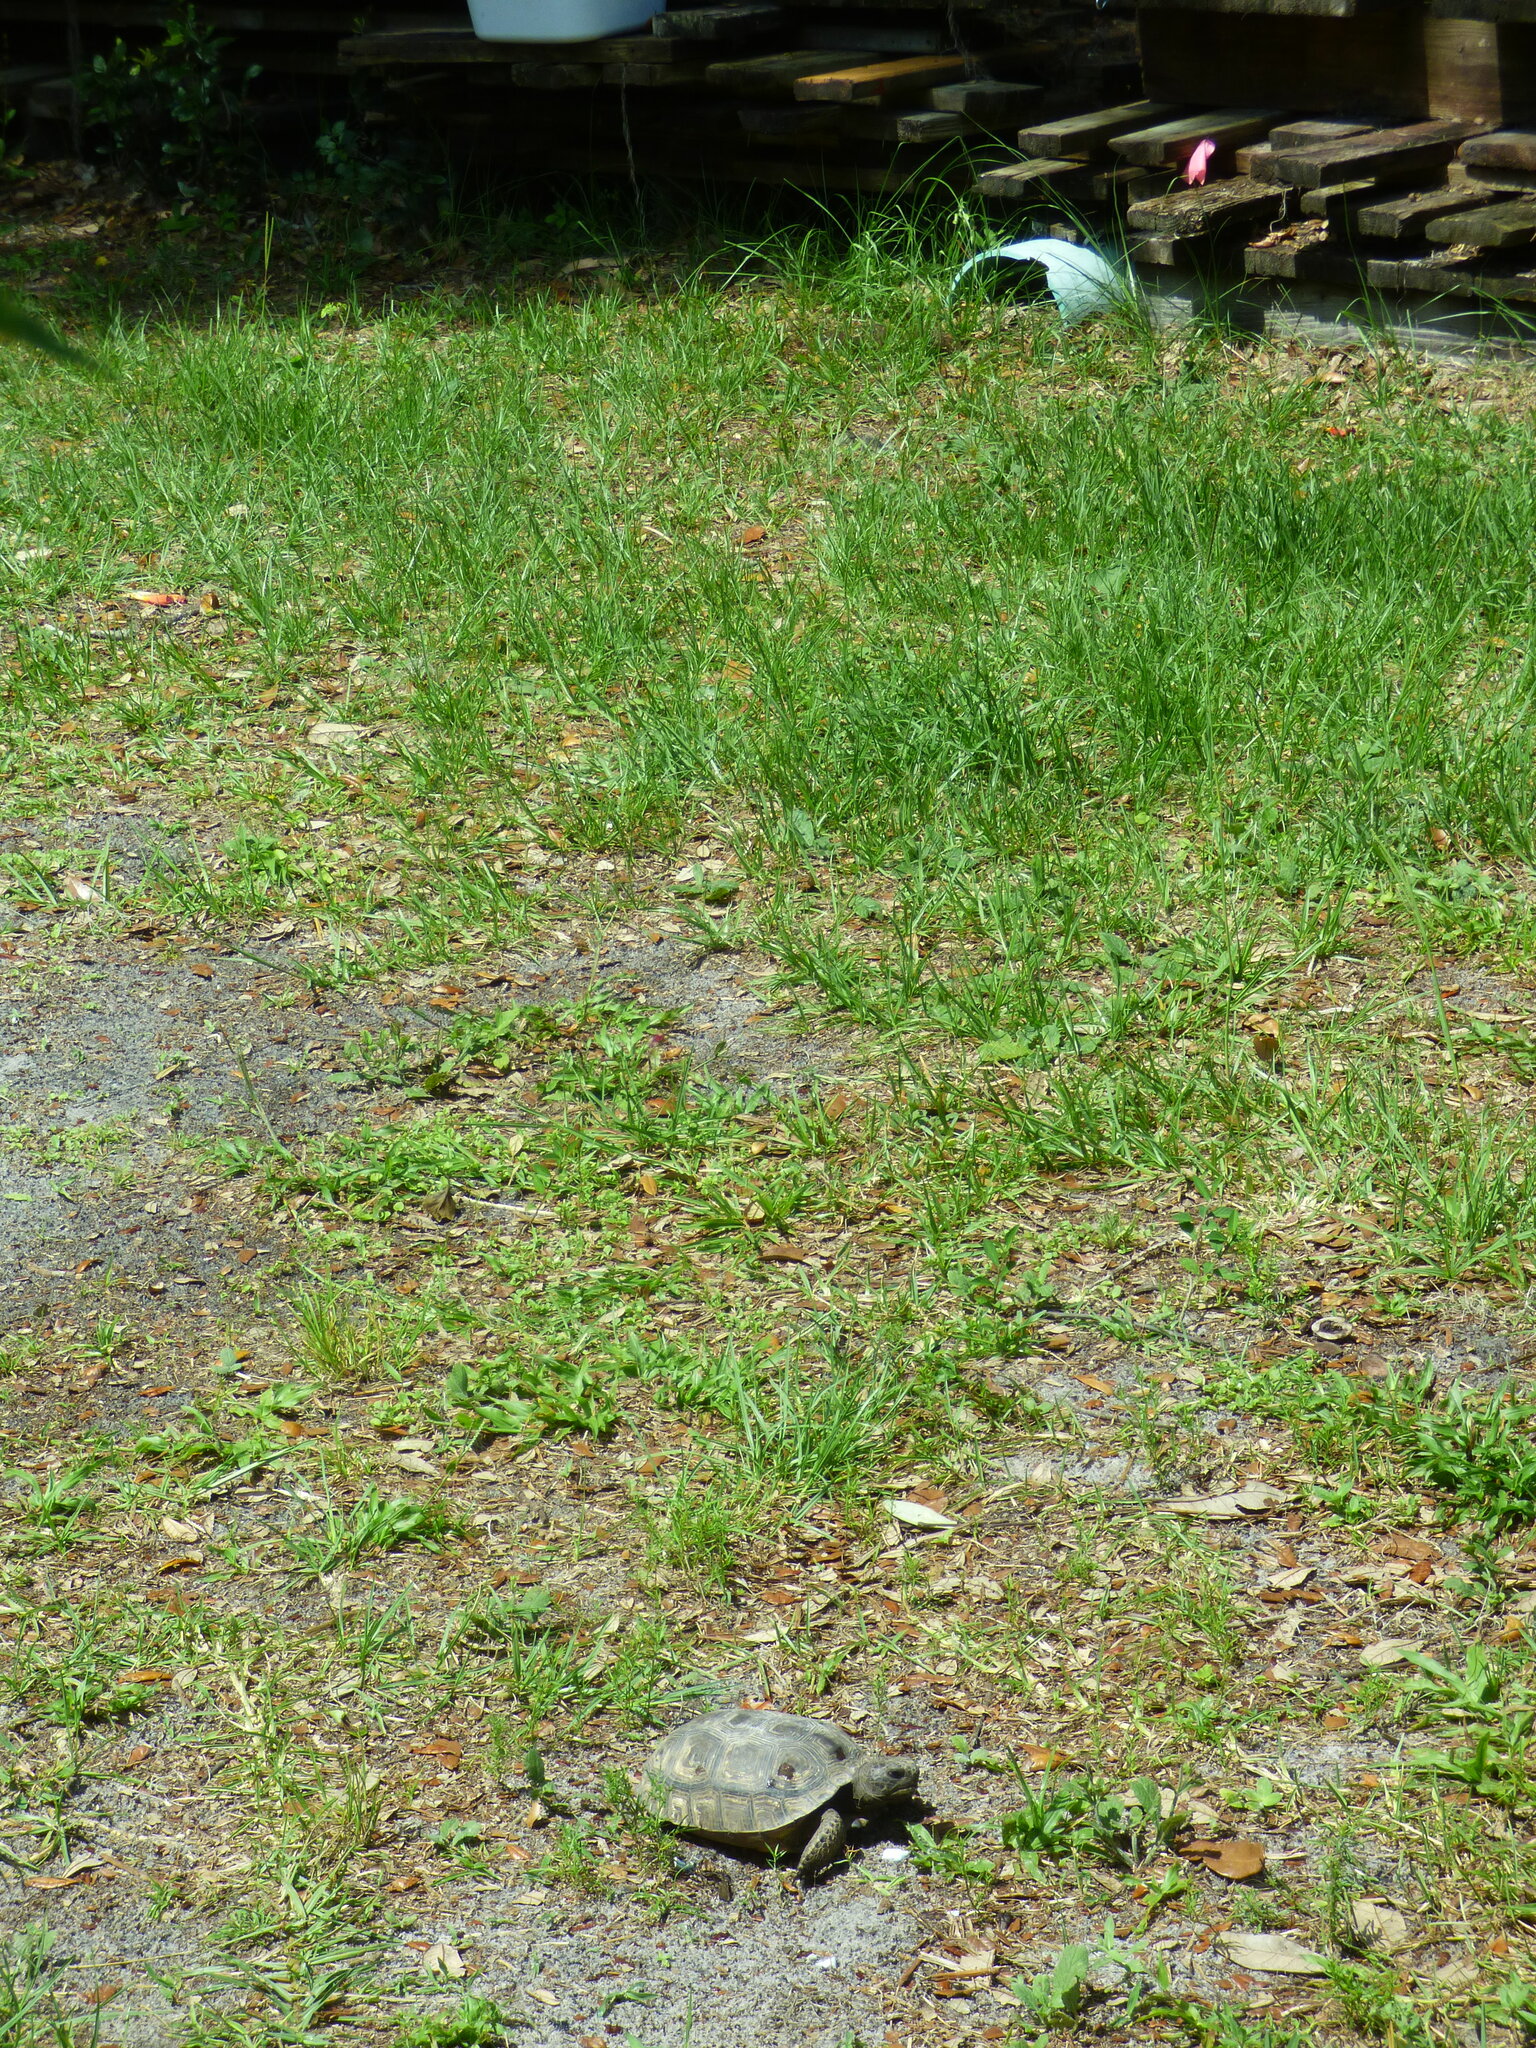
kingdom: Animalia
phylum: Chordata
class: Testudines
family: Testudinidae
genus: Gopherus
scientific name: Gopherus polyphemus
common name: Florida gopher tortoise
